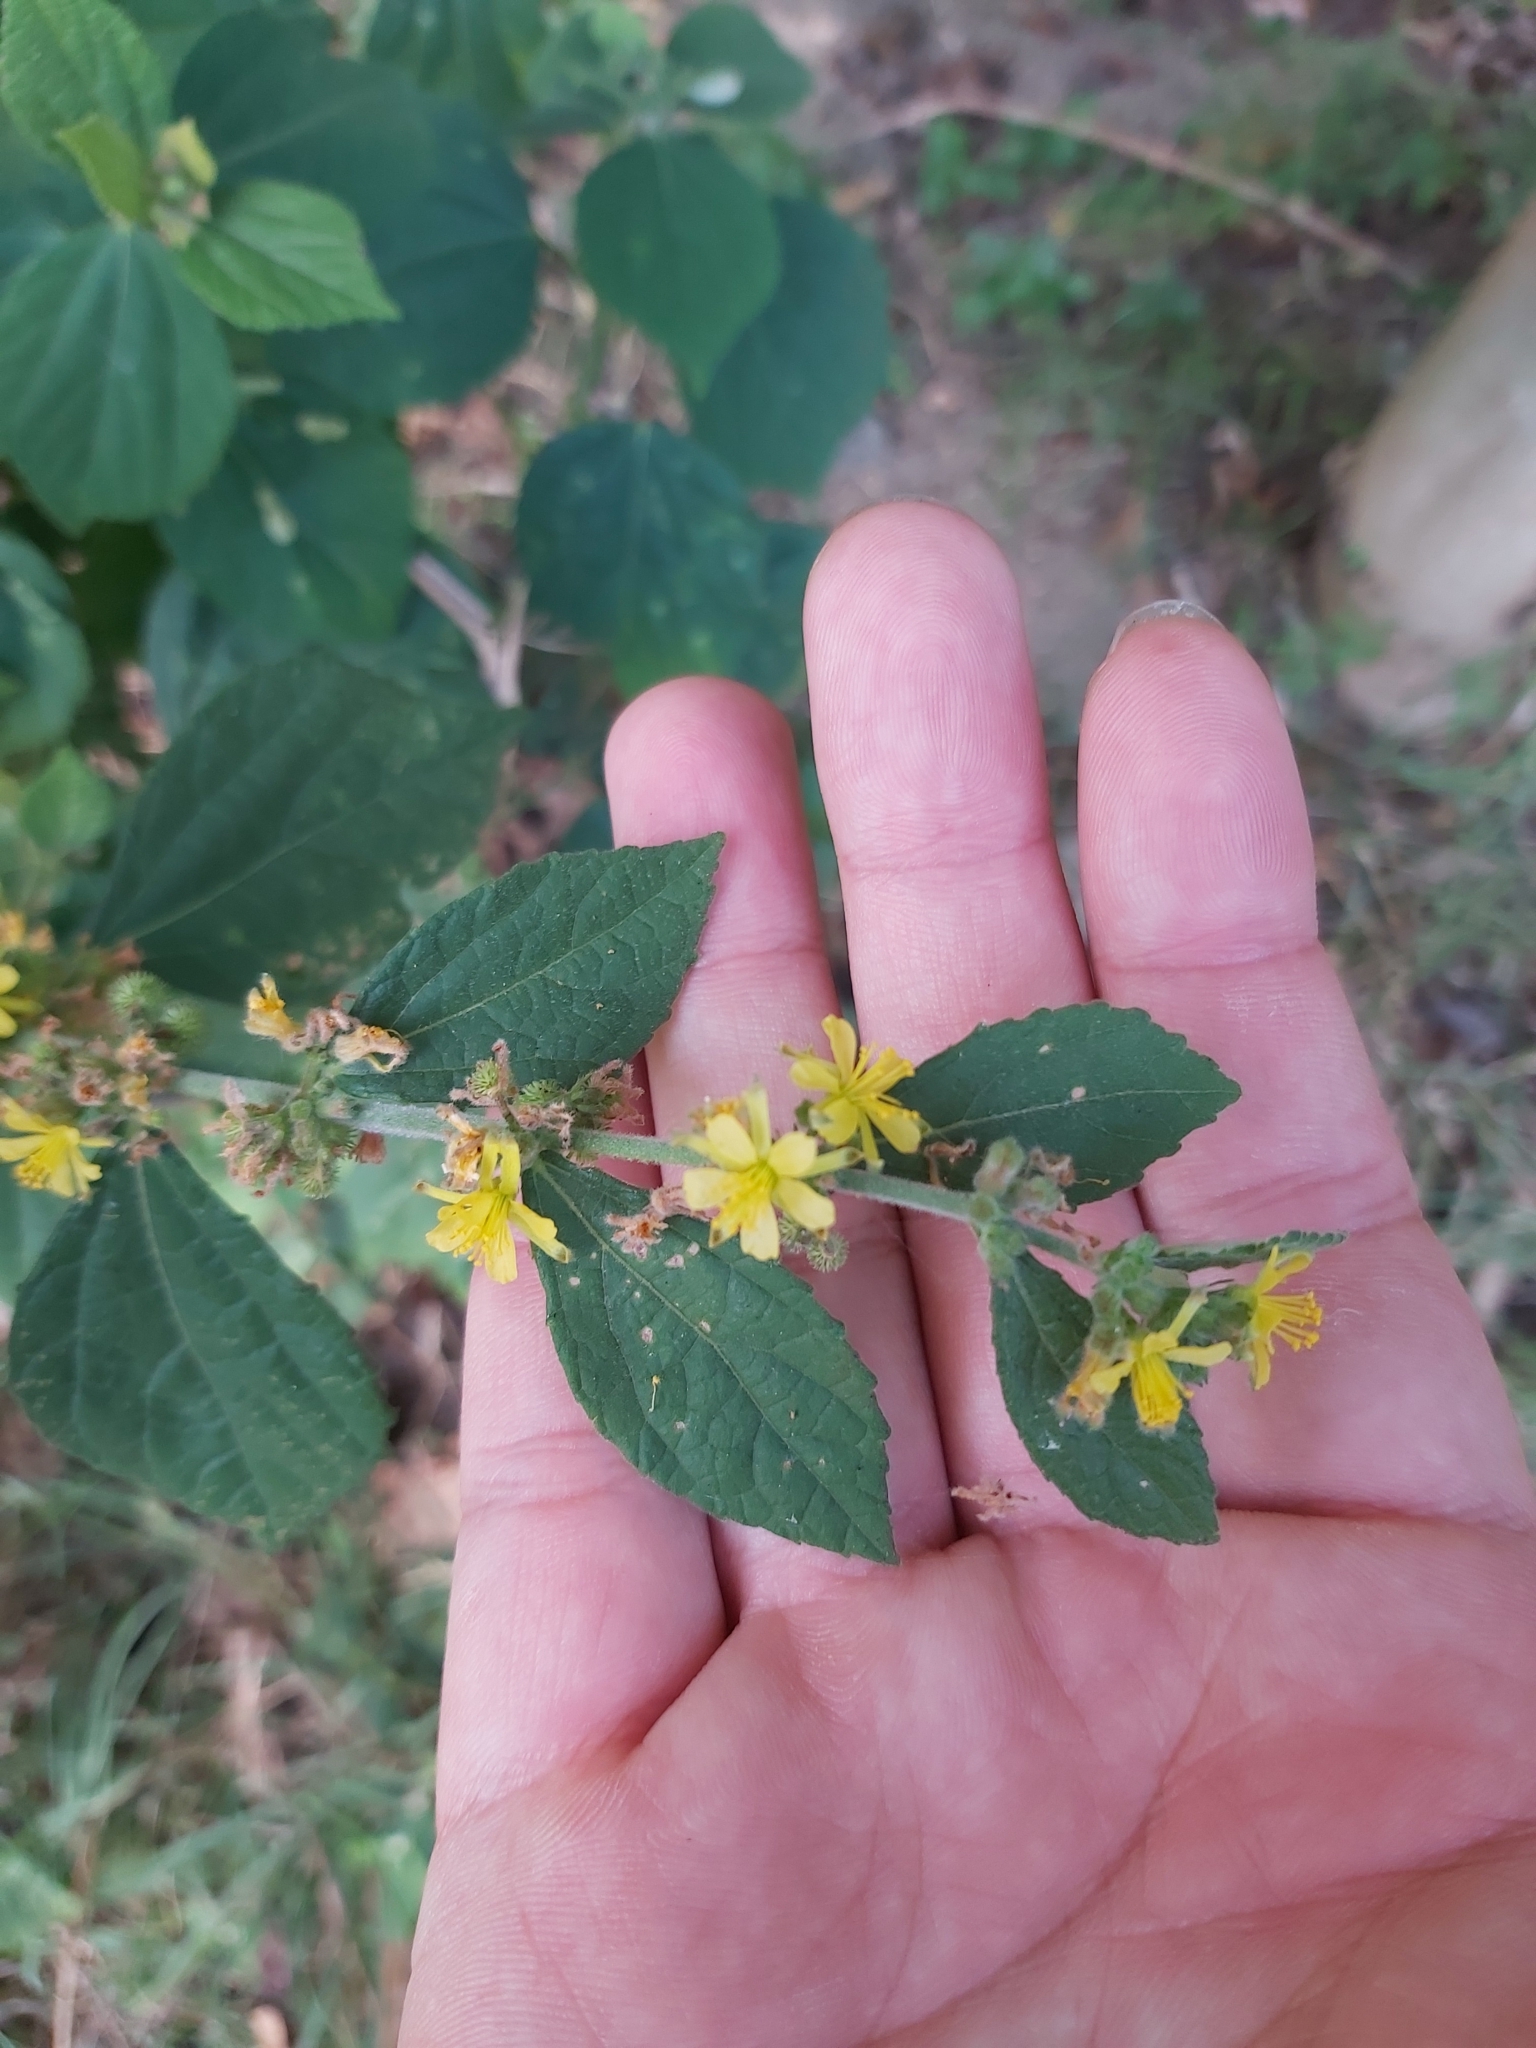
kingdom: Plantae
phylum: Tracheophyta
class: Magnoliopsida
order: Malvales
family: Malvaceae
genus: Triumfetta
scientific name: Triumfetta rhomboidea
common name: Diamond burbark
